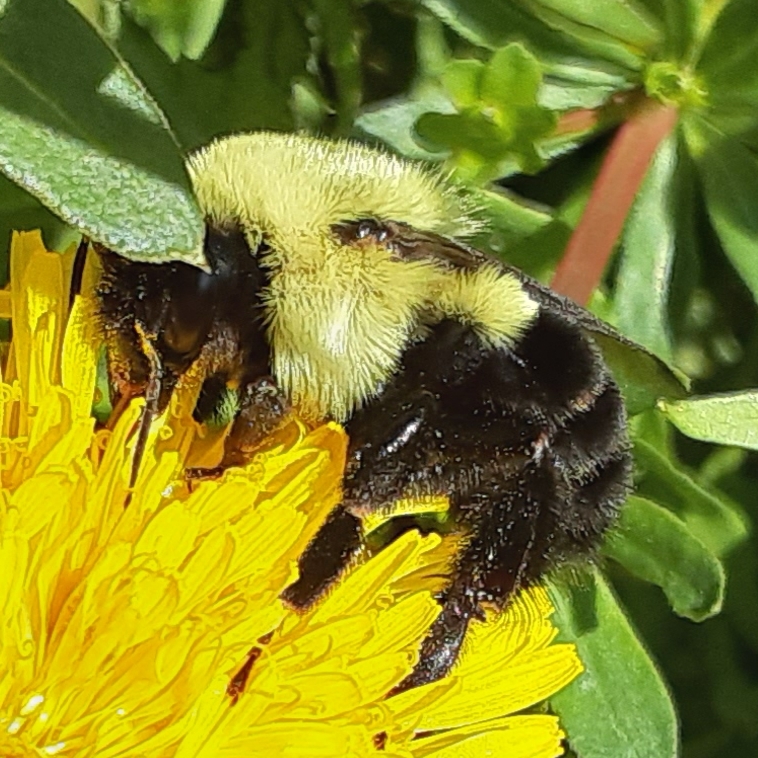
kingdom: Animalia
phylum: Arthropoda
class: Insecta
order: Hymenoptera
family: Apidae
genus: Bombus
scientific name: Bombus impatiens
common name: Common eastern bumble bee
